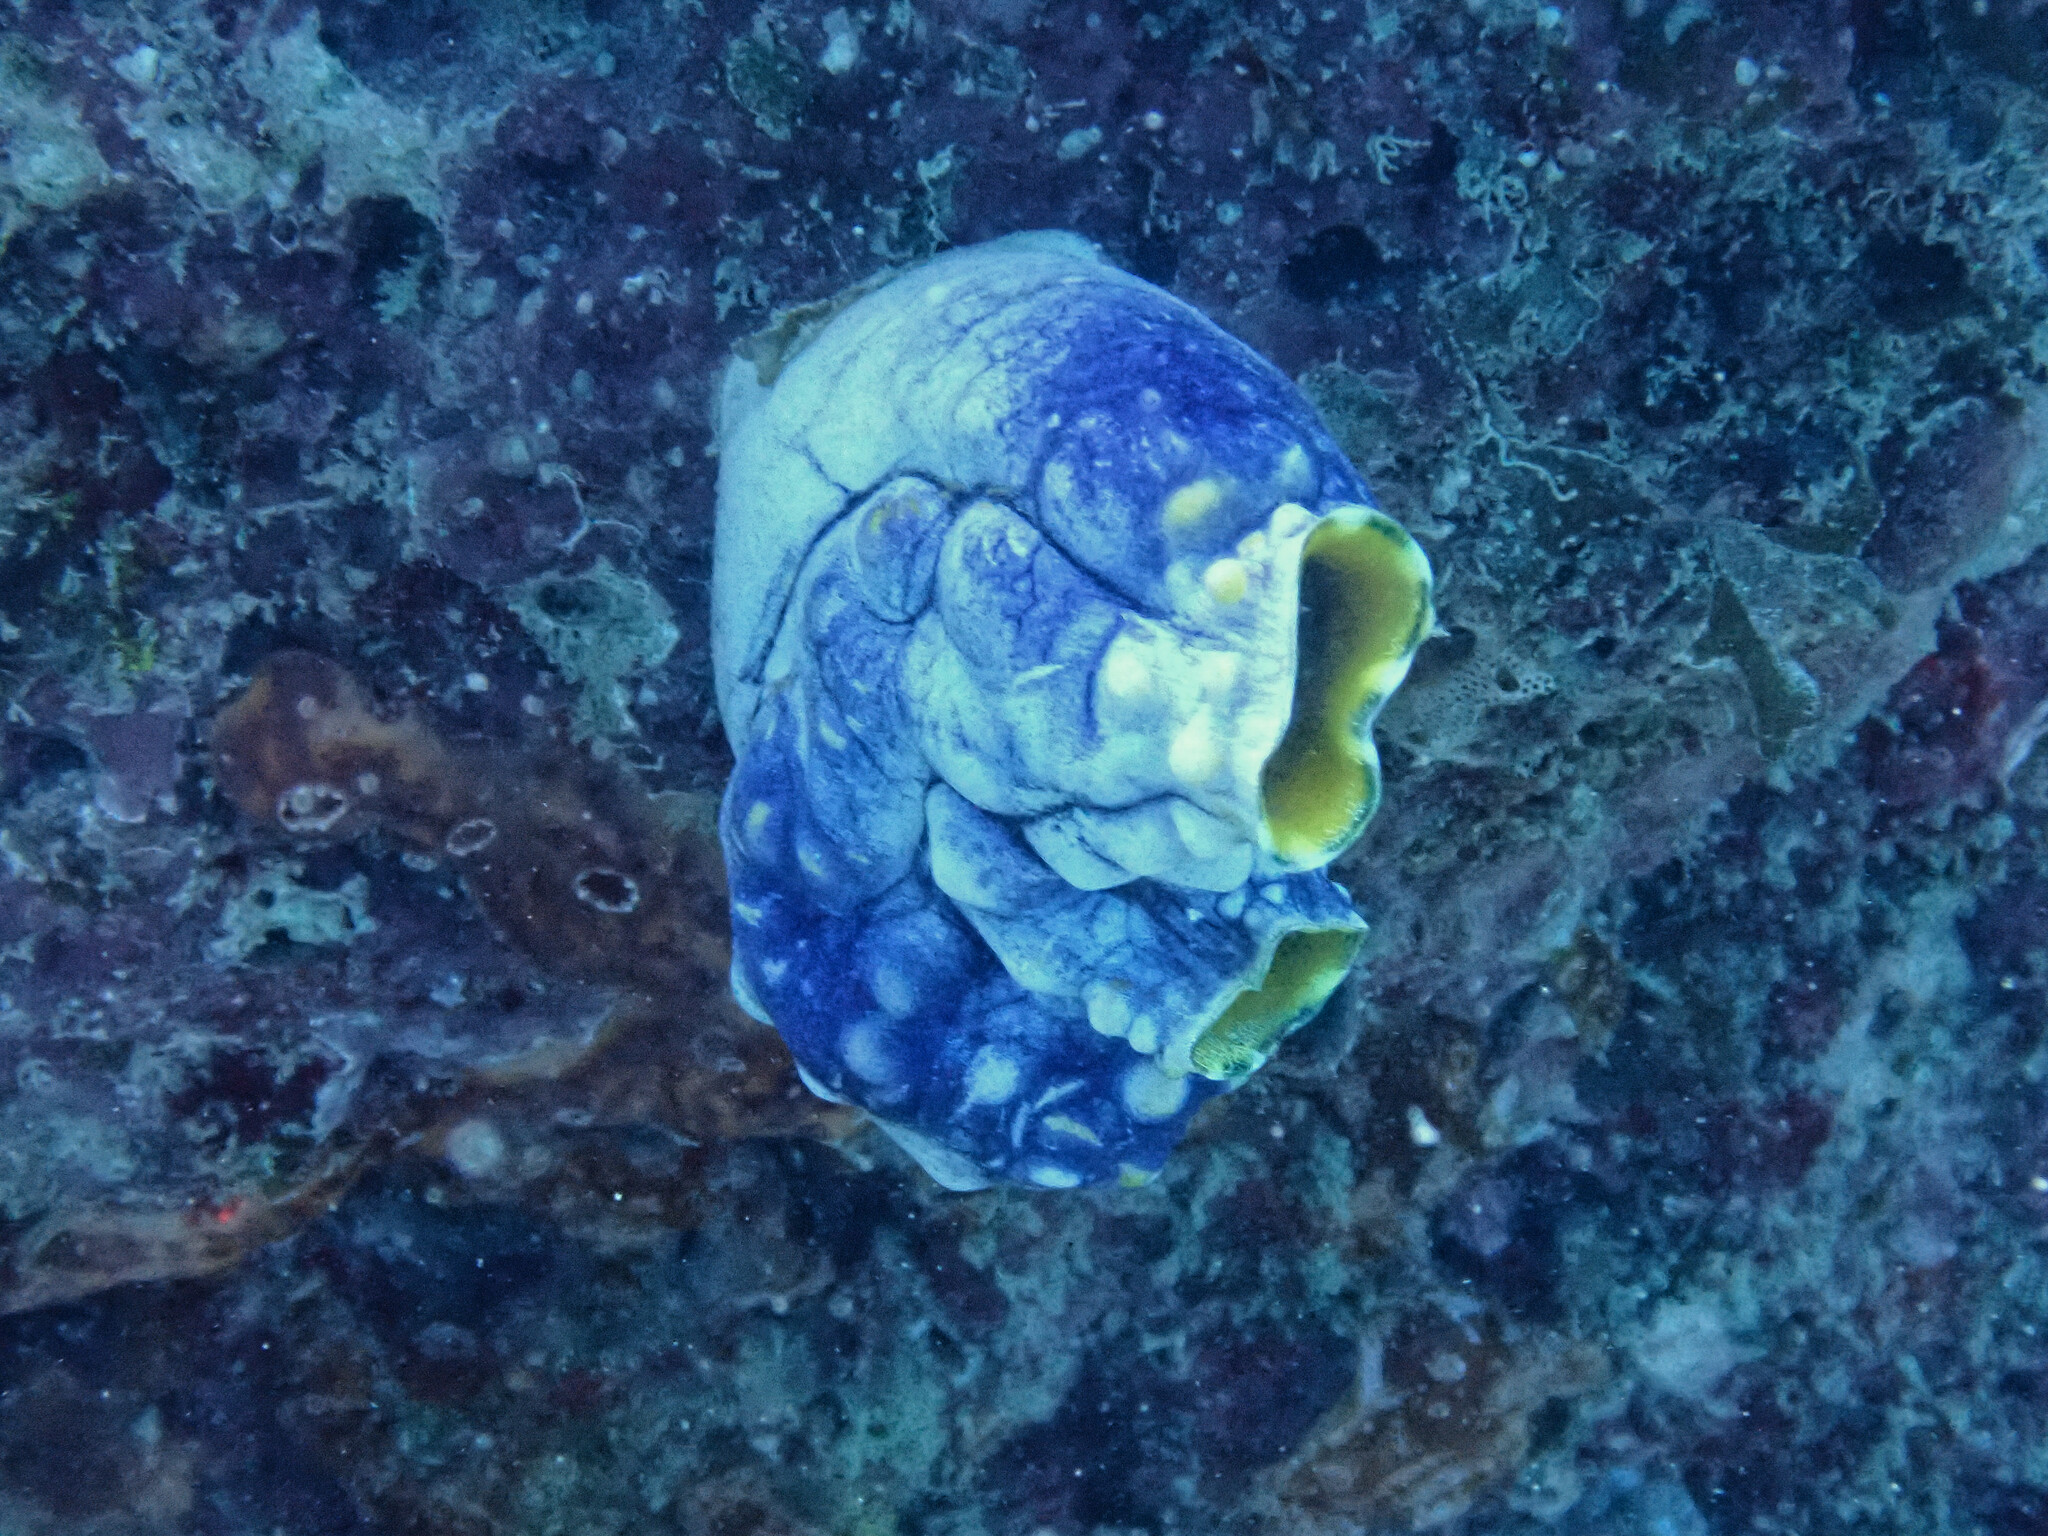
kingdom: Animalia
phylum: Chordata
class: Ascidiacea
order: Stolidobranchia
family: Styelidae
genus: Polycarpa
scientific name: Polycarpa aurata
